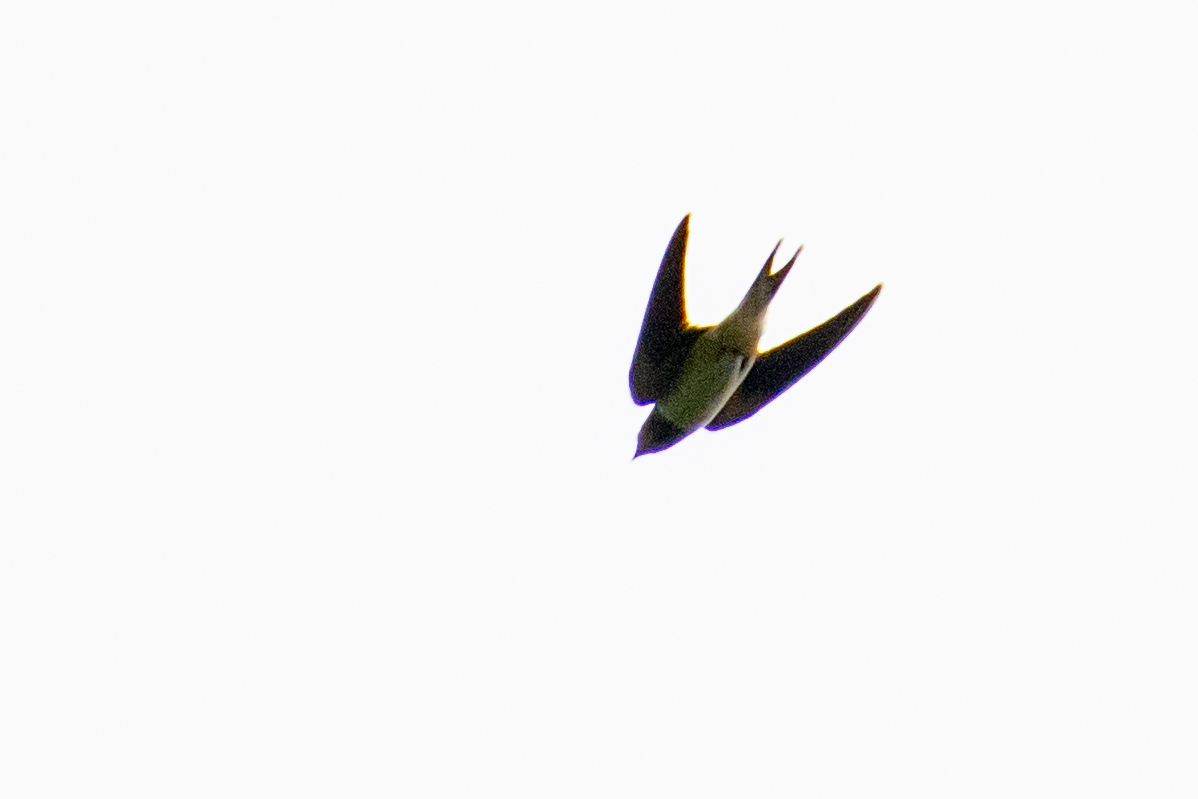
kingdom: Animalia
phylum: Chordata
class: Aves
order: Passeriformes
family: Hirundinidae
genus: Hirundo
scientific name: Hirundo rustica
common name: Barn swallow
